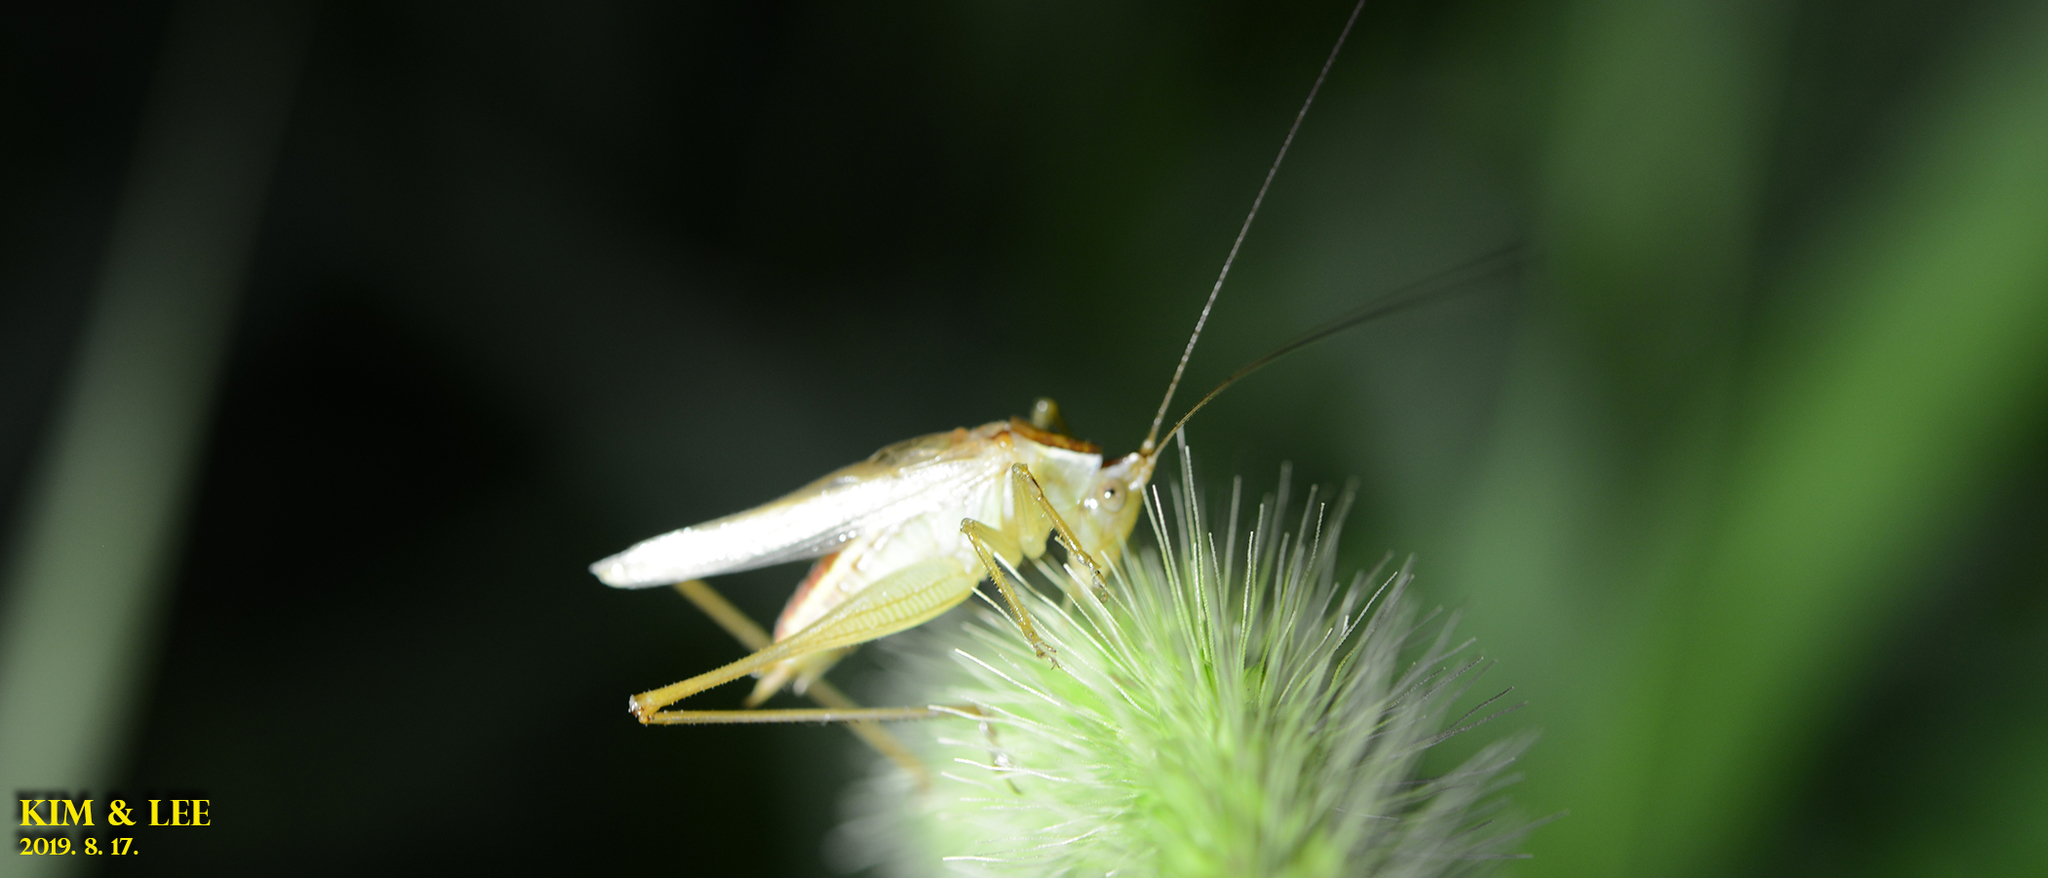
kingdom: Animalia
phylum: Arthropoda
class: Insecta
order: Orthoptera
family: Tettigoniidae
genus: Conocephalus
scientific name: Conocephalus exemptus
